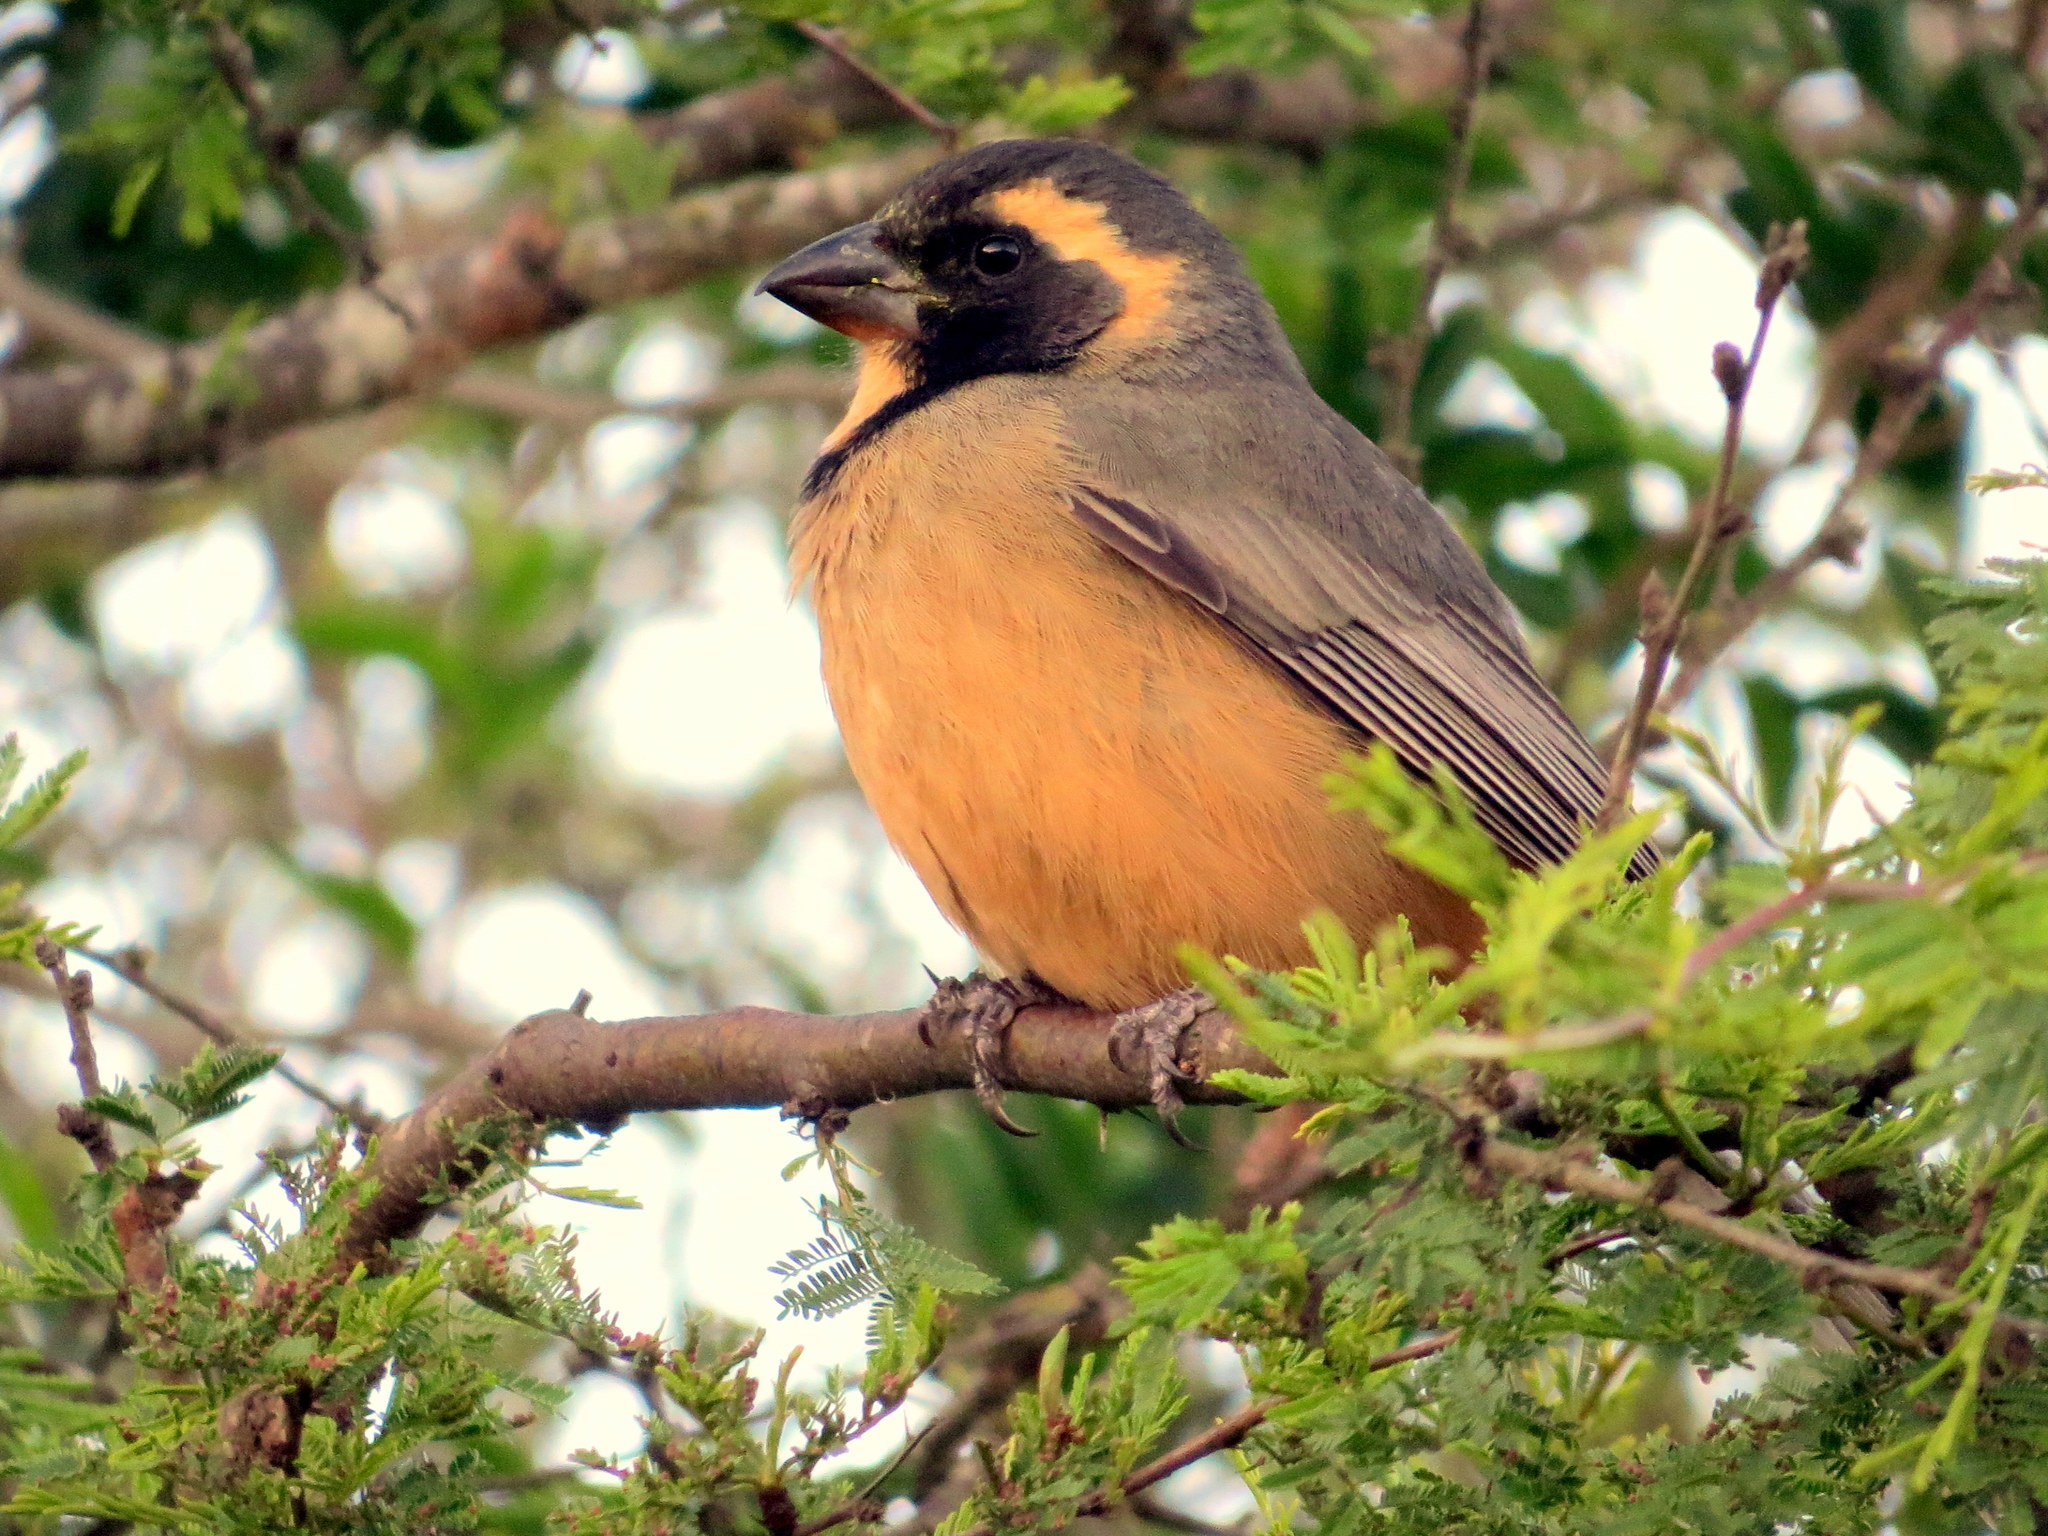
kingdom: Animalia
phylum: Chordata
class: Aves
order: Passeriformes
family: Thraupidae
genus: Saltator
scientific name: Saltator aurantiirostris
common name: Golden-billed saltator
